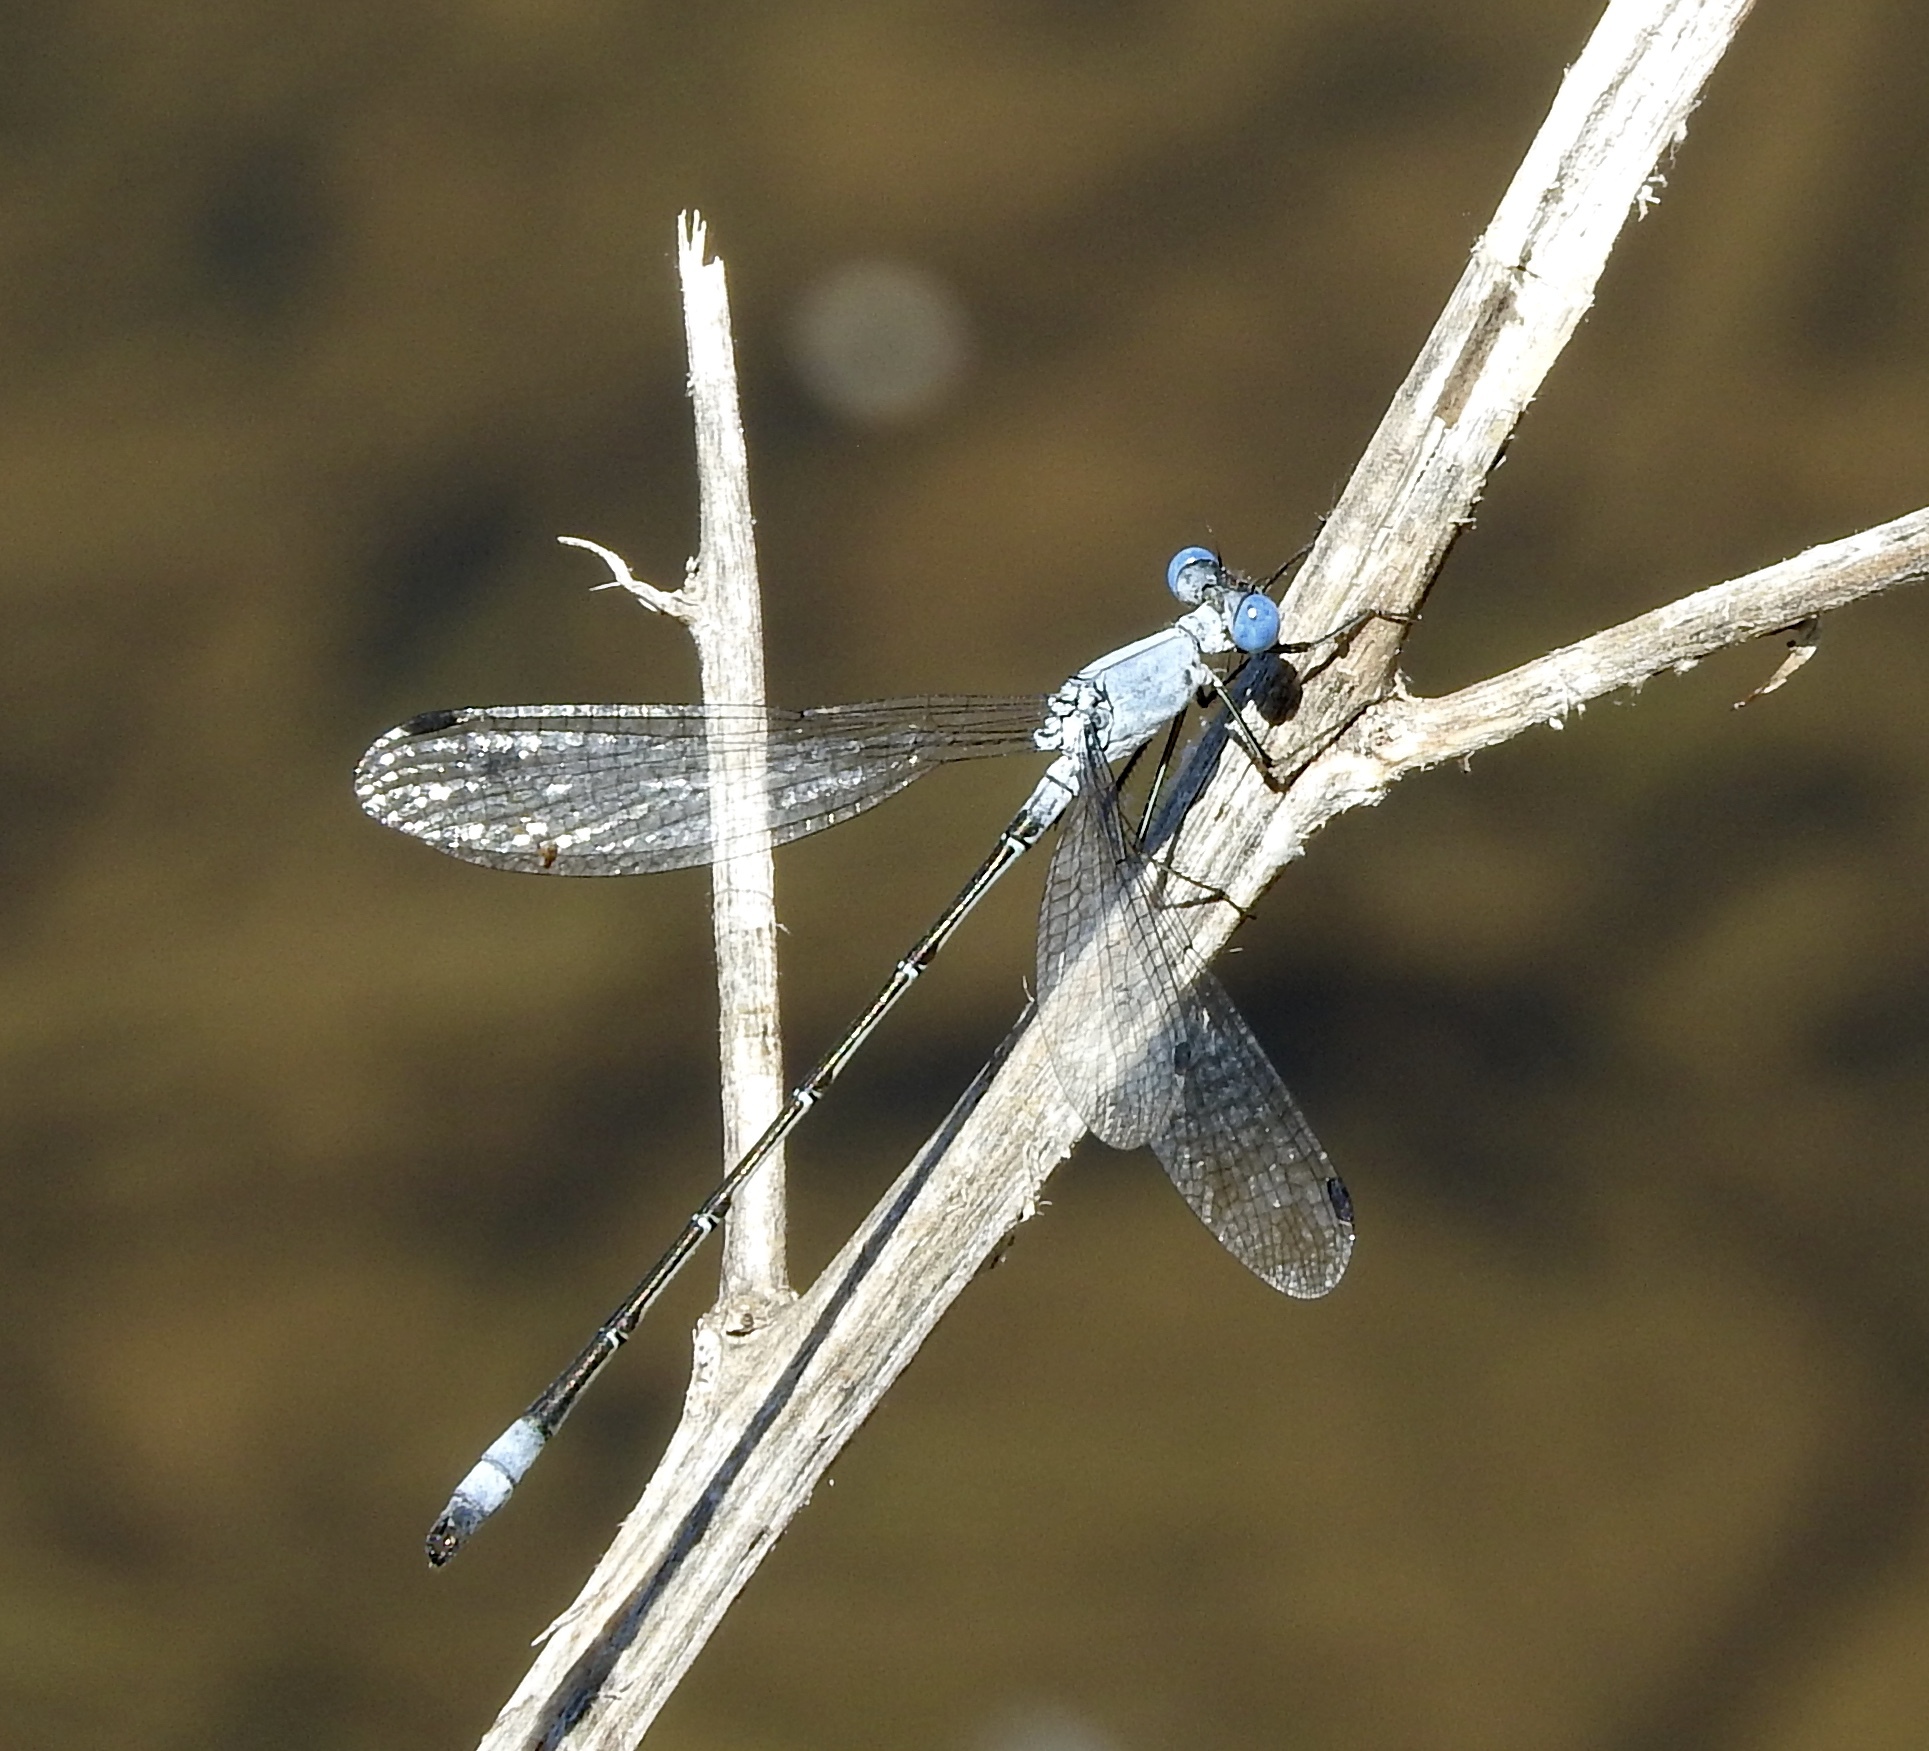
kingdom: Animalia
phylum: Arthropoda
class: Insecta
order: Odonata
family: Lestidae
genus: Lestes
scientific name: Lestes sigma
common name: Chalky spreadwing
